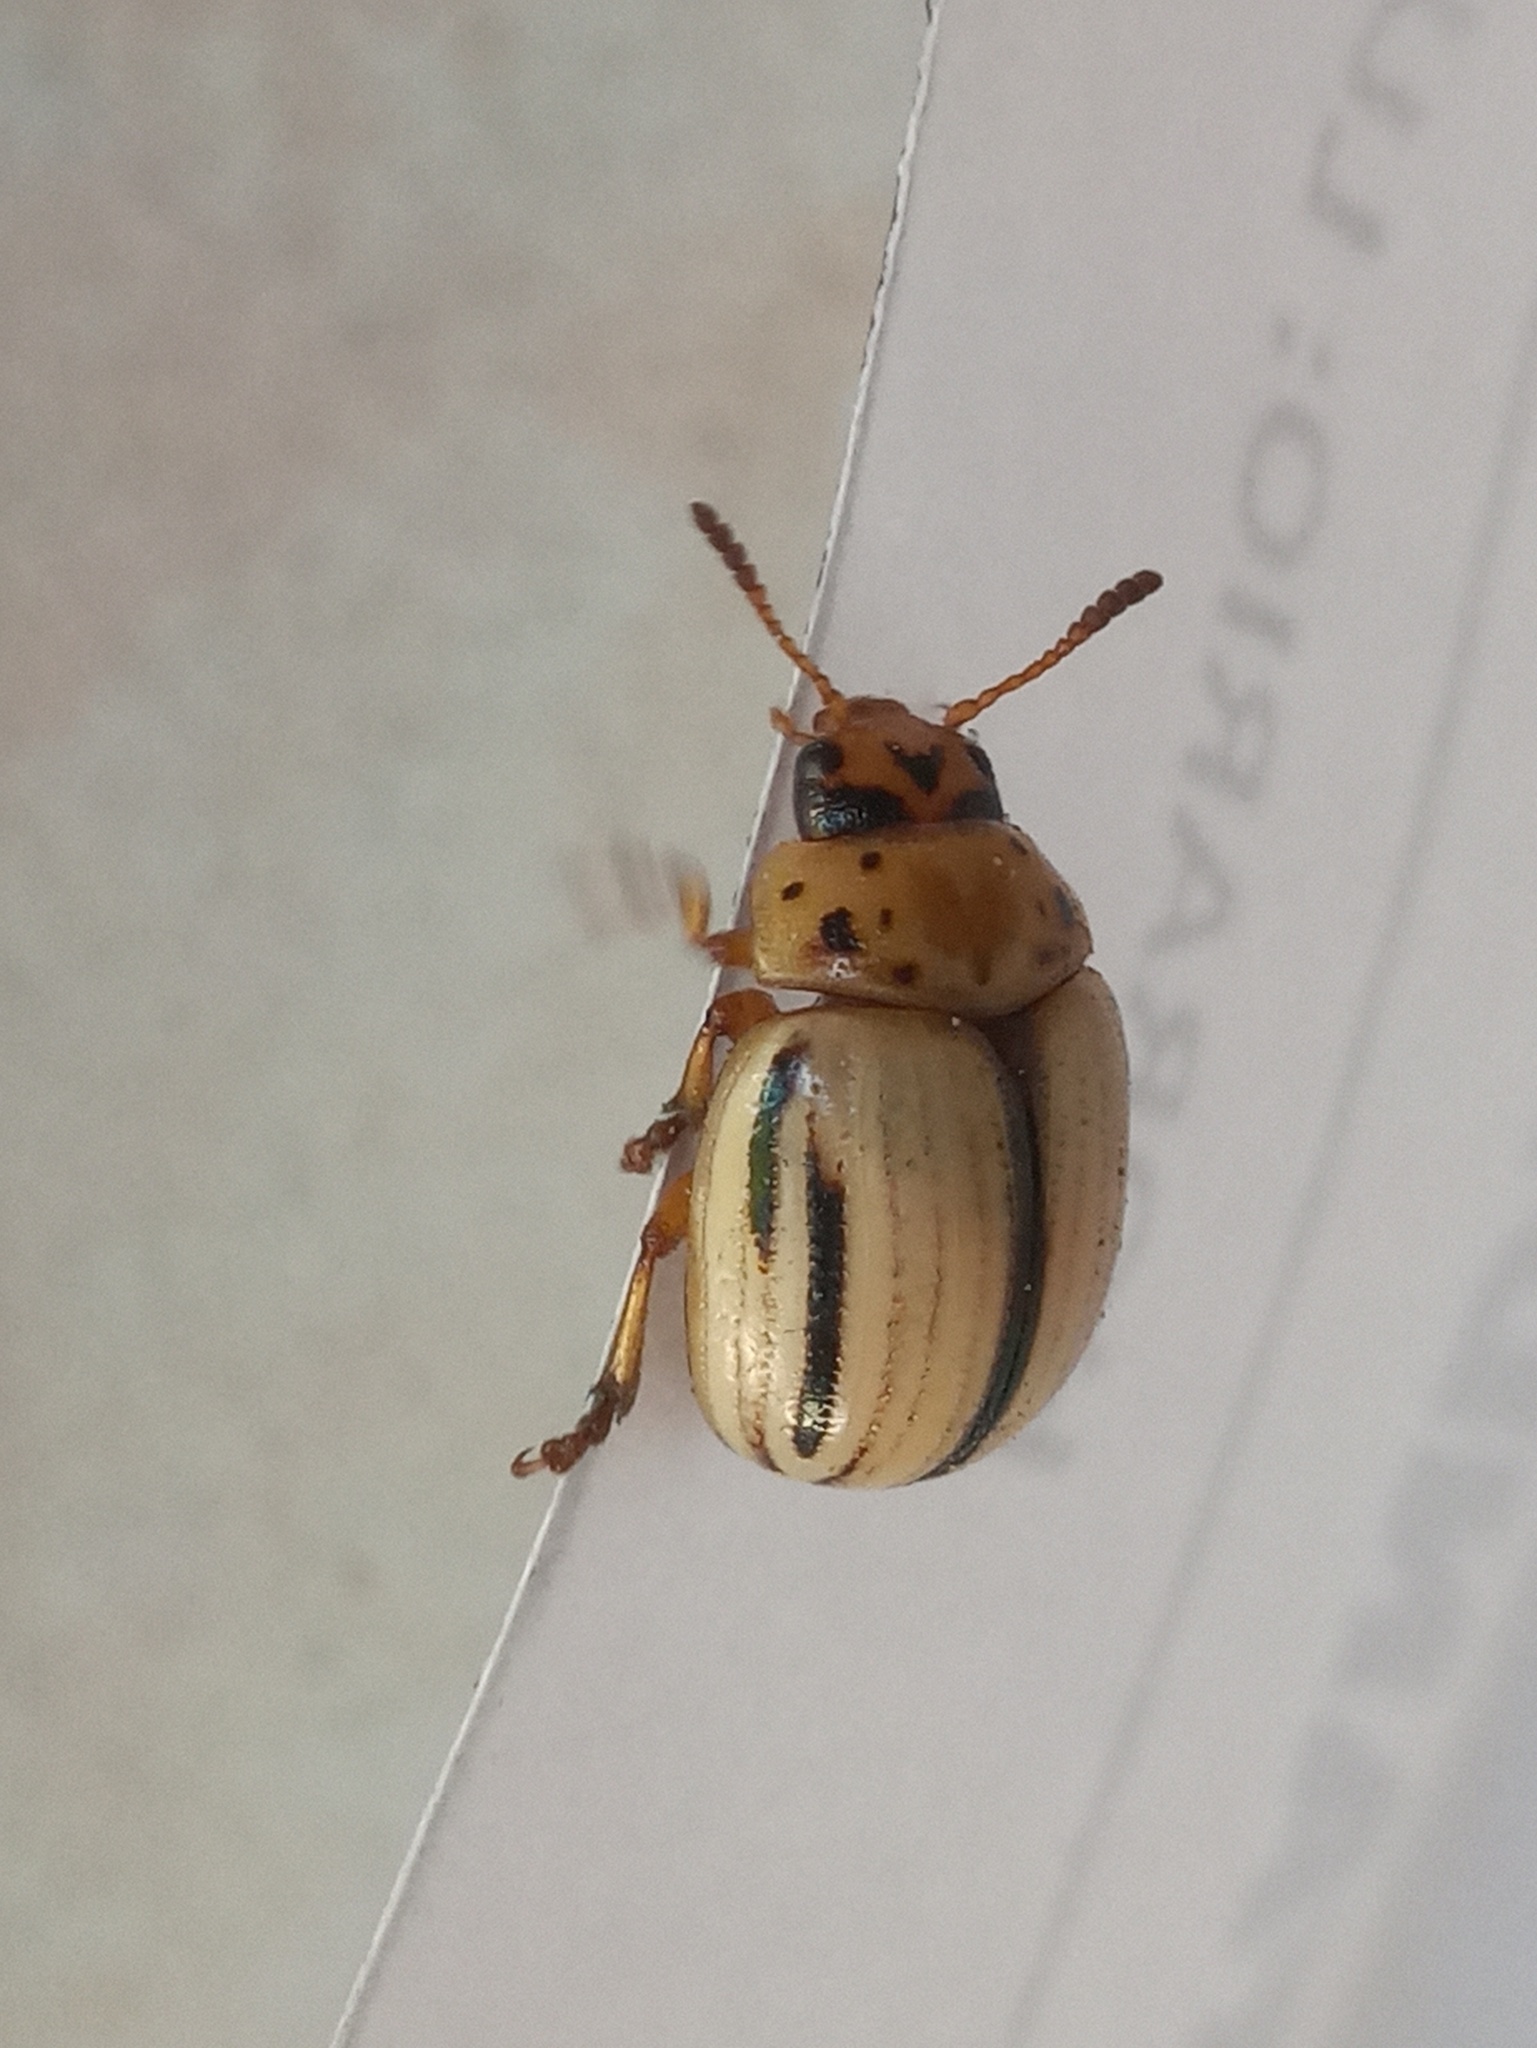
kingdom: Animalia
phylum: Arthropoda
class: Insecta
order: Coleoptera
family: Chrysomelidae
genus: Leptinotarsa
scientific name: Leptinotarsa defecta
